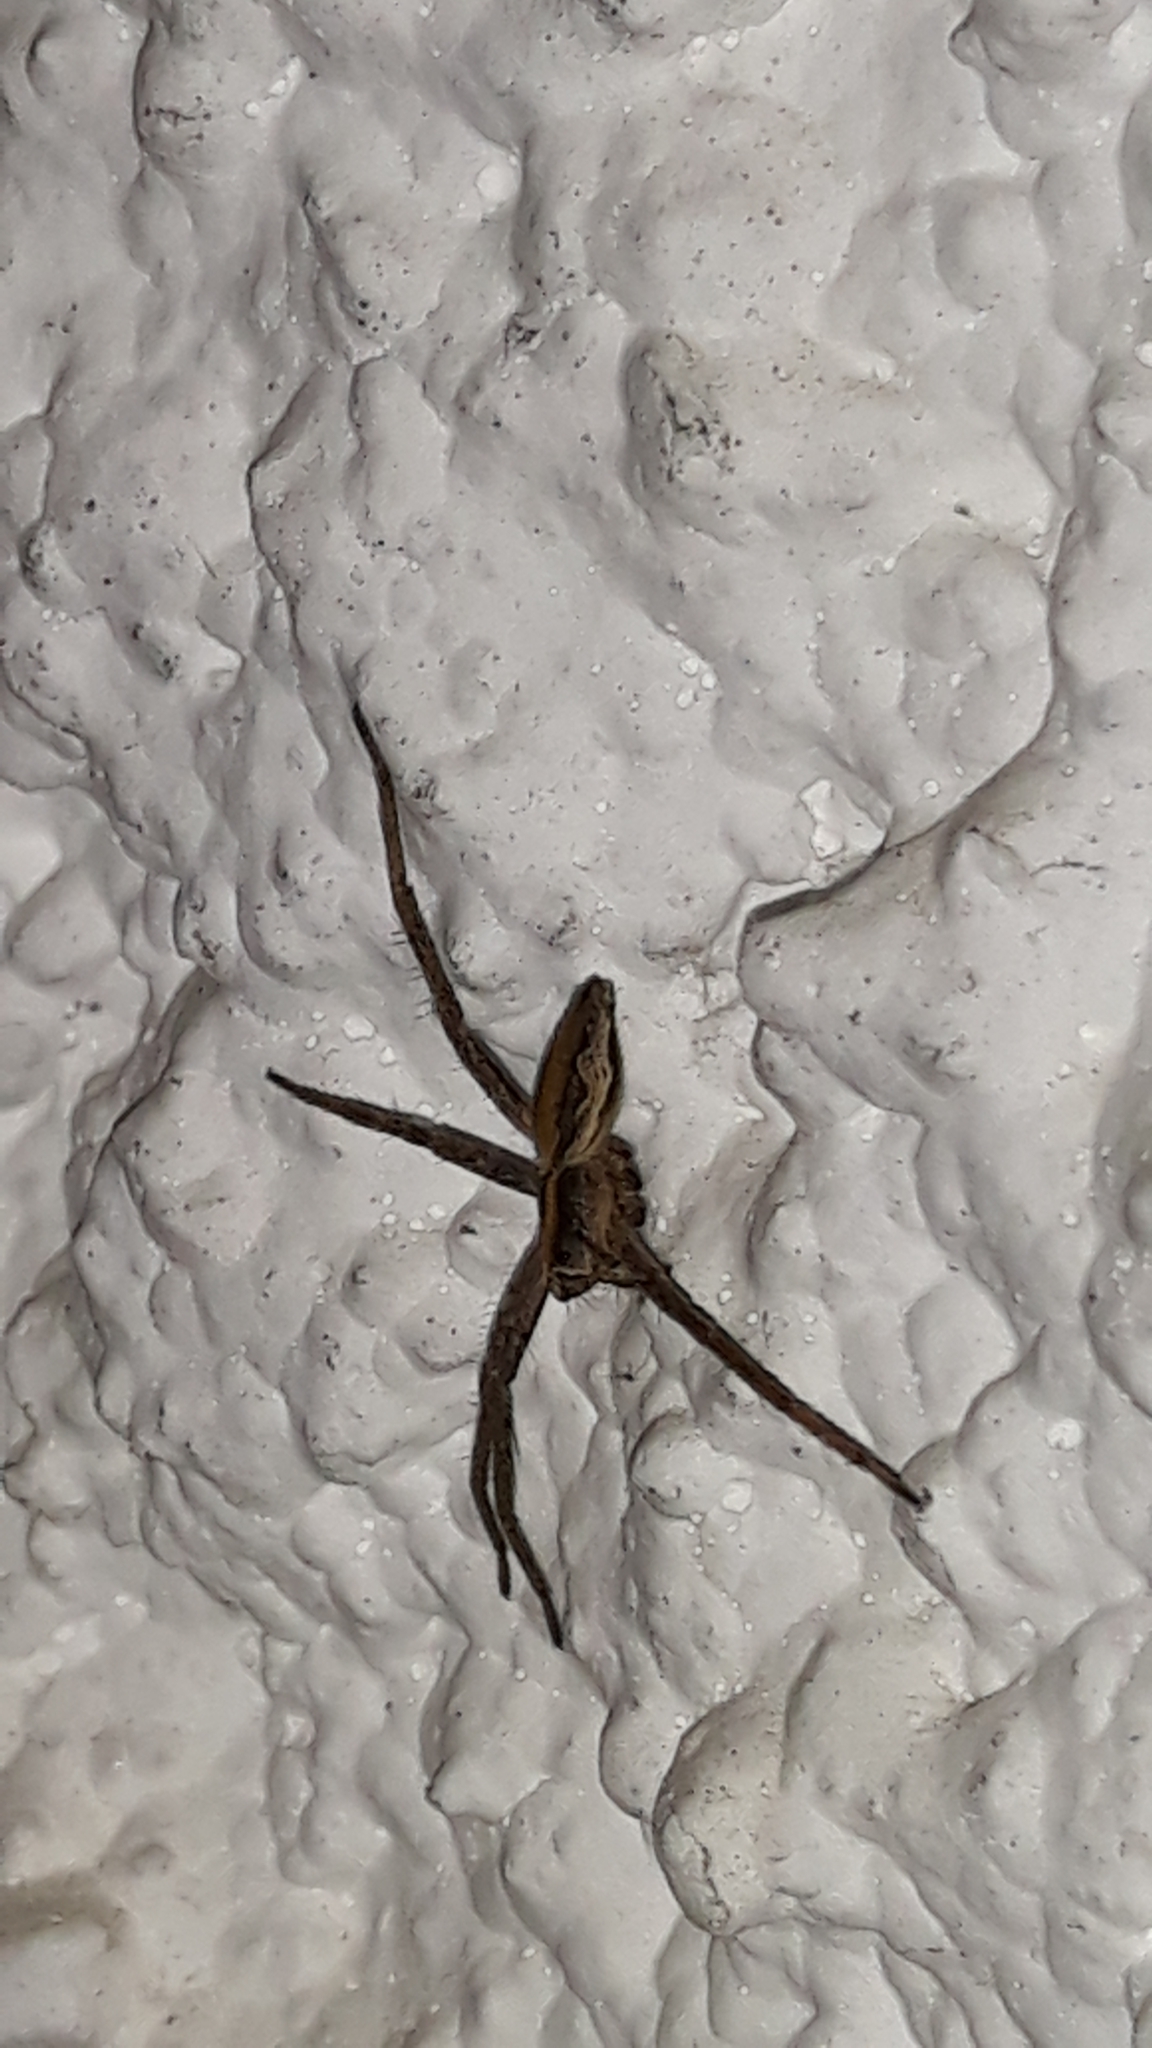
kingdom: Animalia
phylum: Arthropoda
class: Arachnida
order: Araneae
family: Pisauridae
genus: Pisaura
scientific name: Pisaura mirabilis
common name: Tent spider
